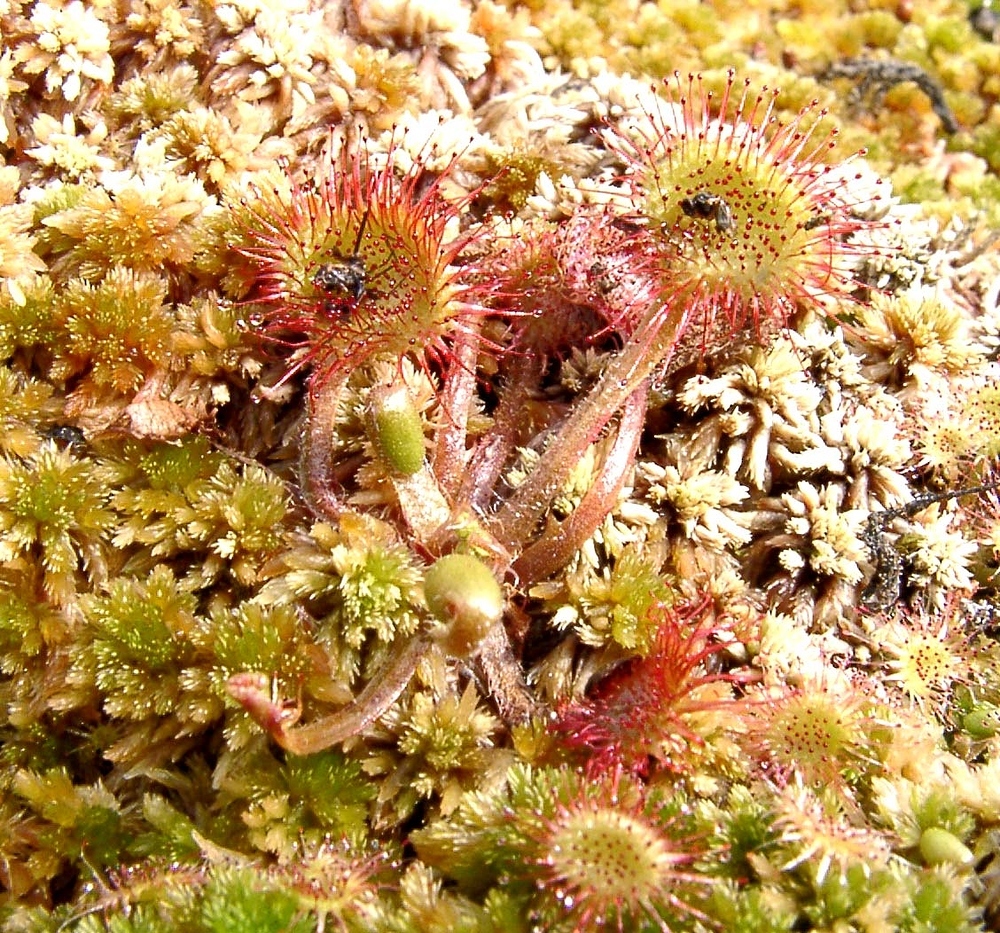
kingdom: Plantae
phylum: Tracheophyta
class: Magnoliopsida
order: Caryophyllales
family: Droseraceae
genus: Drosera
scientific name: Drosera rotundifolia
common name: Round-leaved sundew
